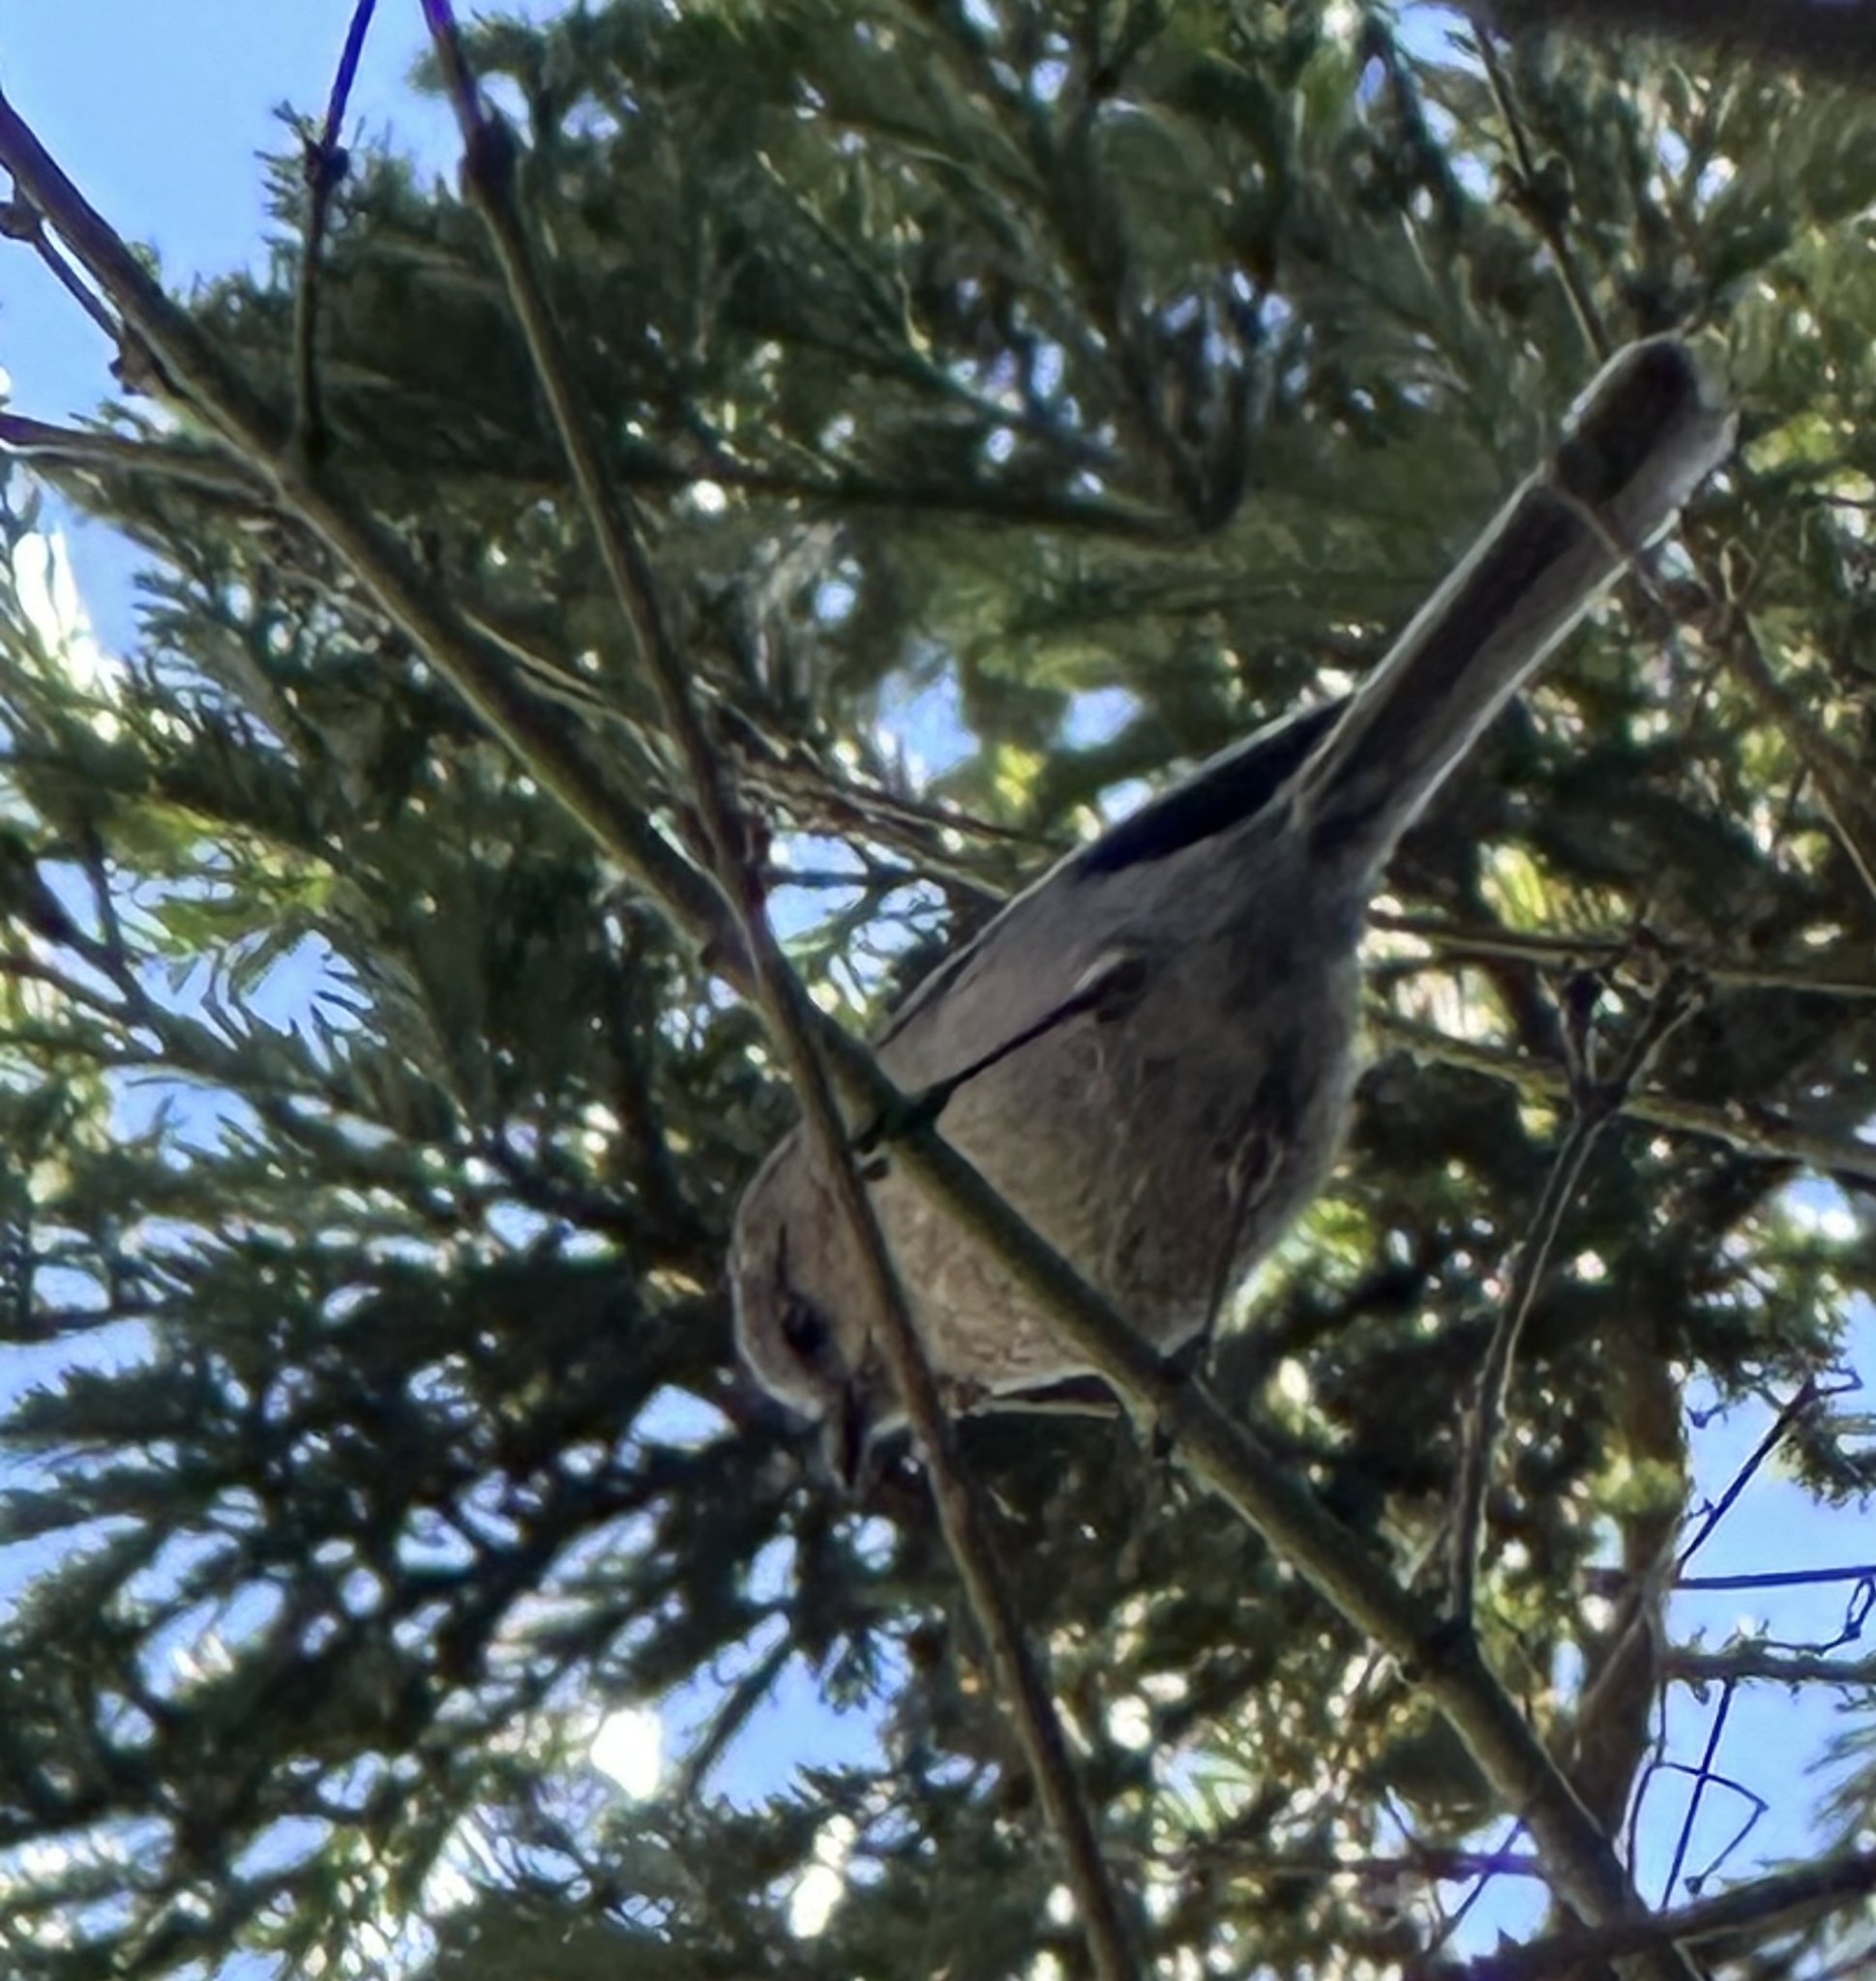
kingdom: Animalia
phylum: Chordata
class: Aves
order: Passeriformes
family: Aegithalidae
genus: Psaltriparus
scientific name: Psaltriparus minimus
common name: American bushtit
